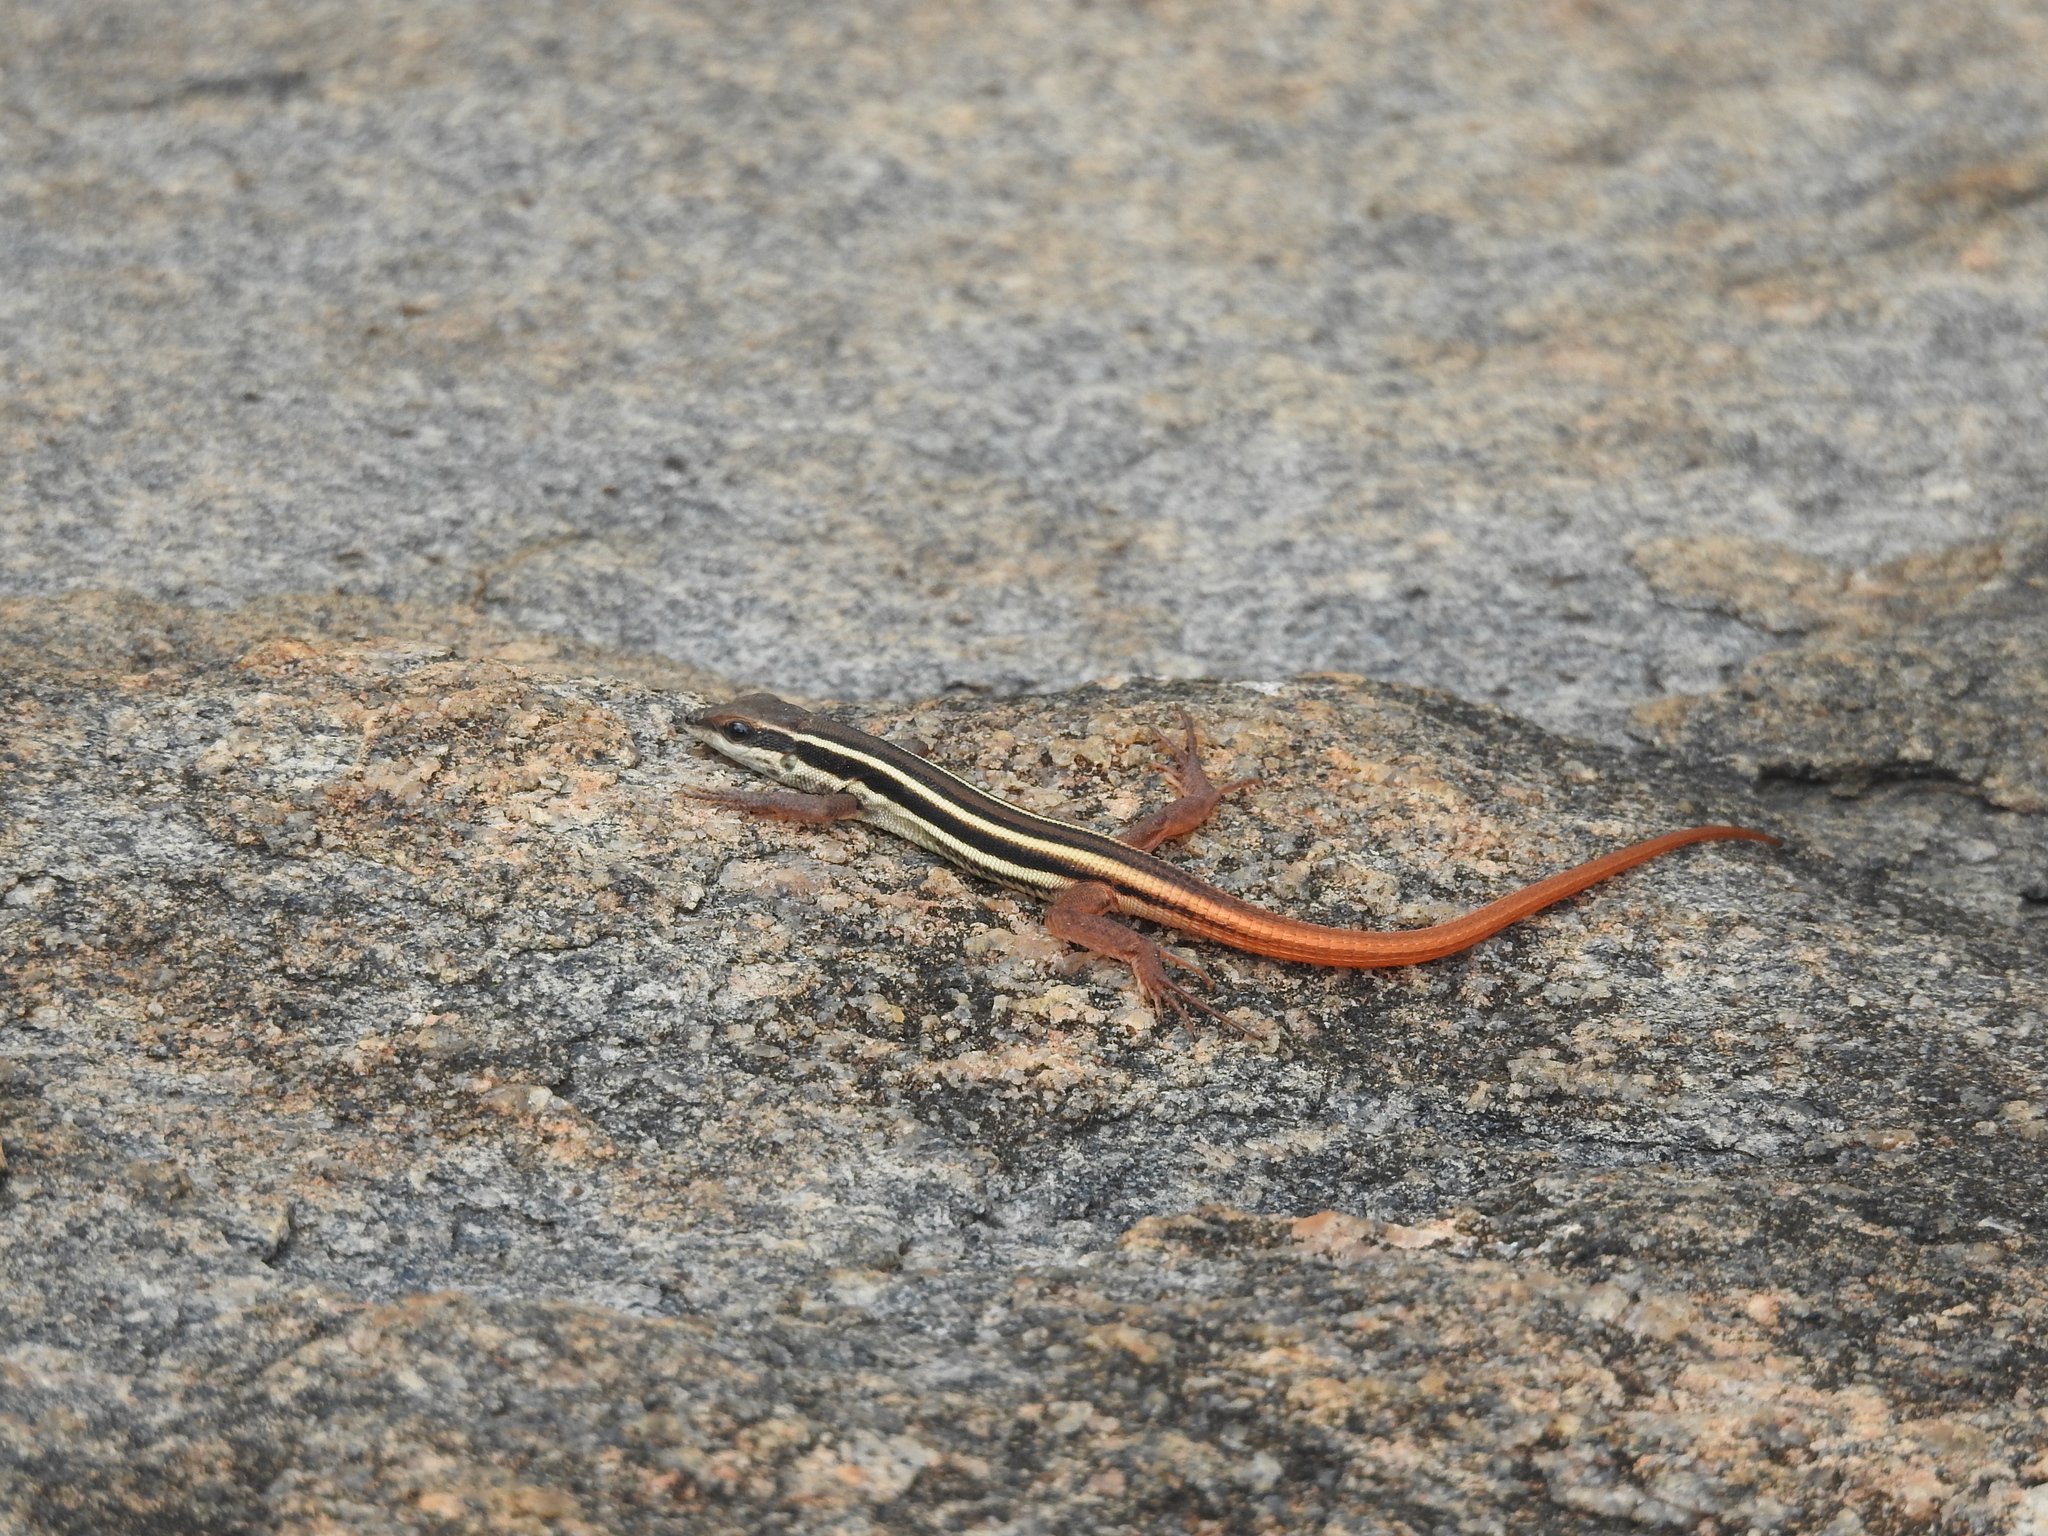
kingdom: Animalia
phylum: Chordata
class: Squamata
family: Lacertidae
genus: Ophisops
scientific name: Ophisops leschenaultii
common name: Leschenault's cabrita
